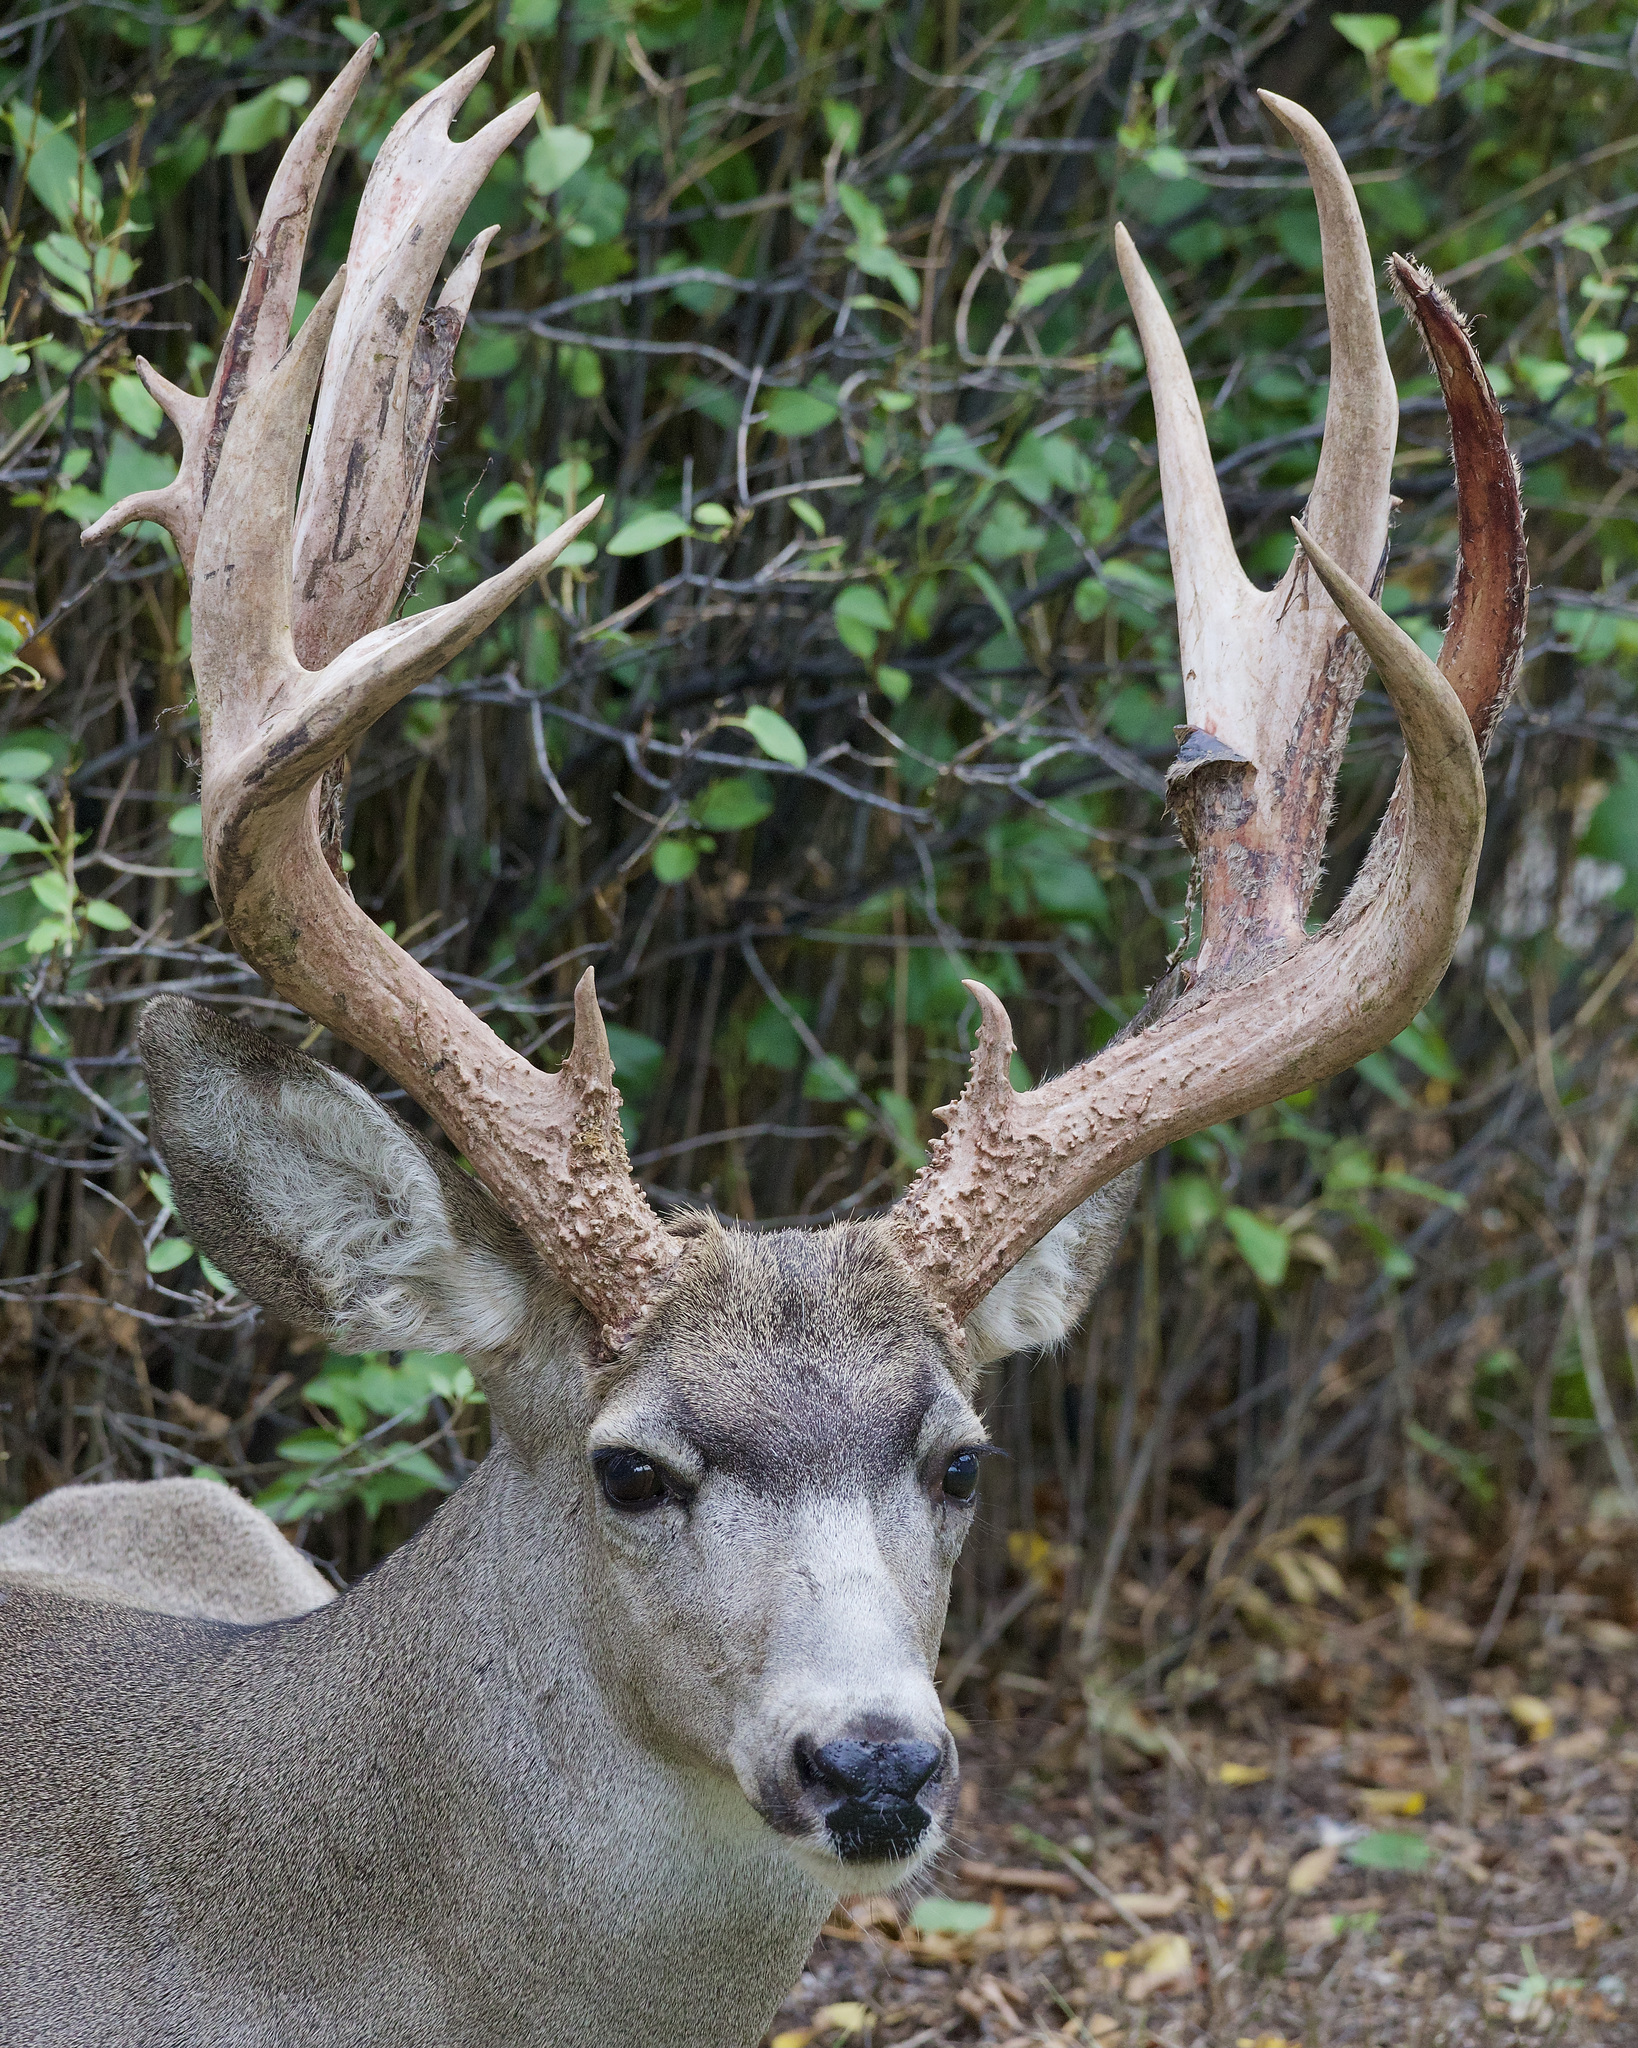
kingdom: Animalia
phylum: Chordata
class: Mammalia
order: Artiodactyla
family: Cervidae
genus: Odocoileus
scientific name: Odocoileus hemionus
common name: Mule deer
